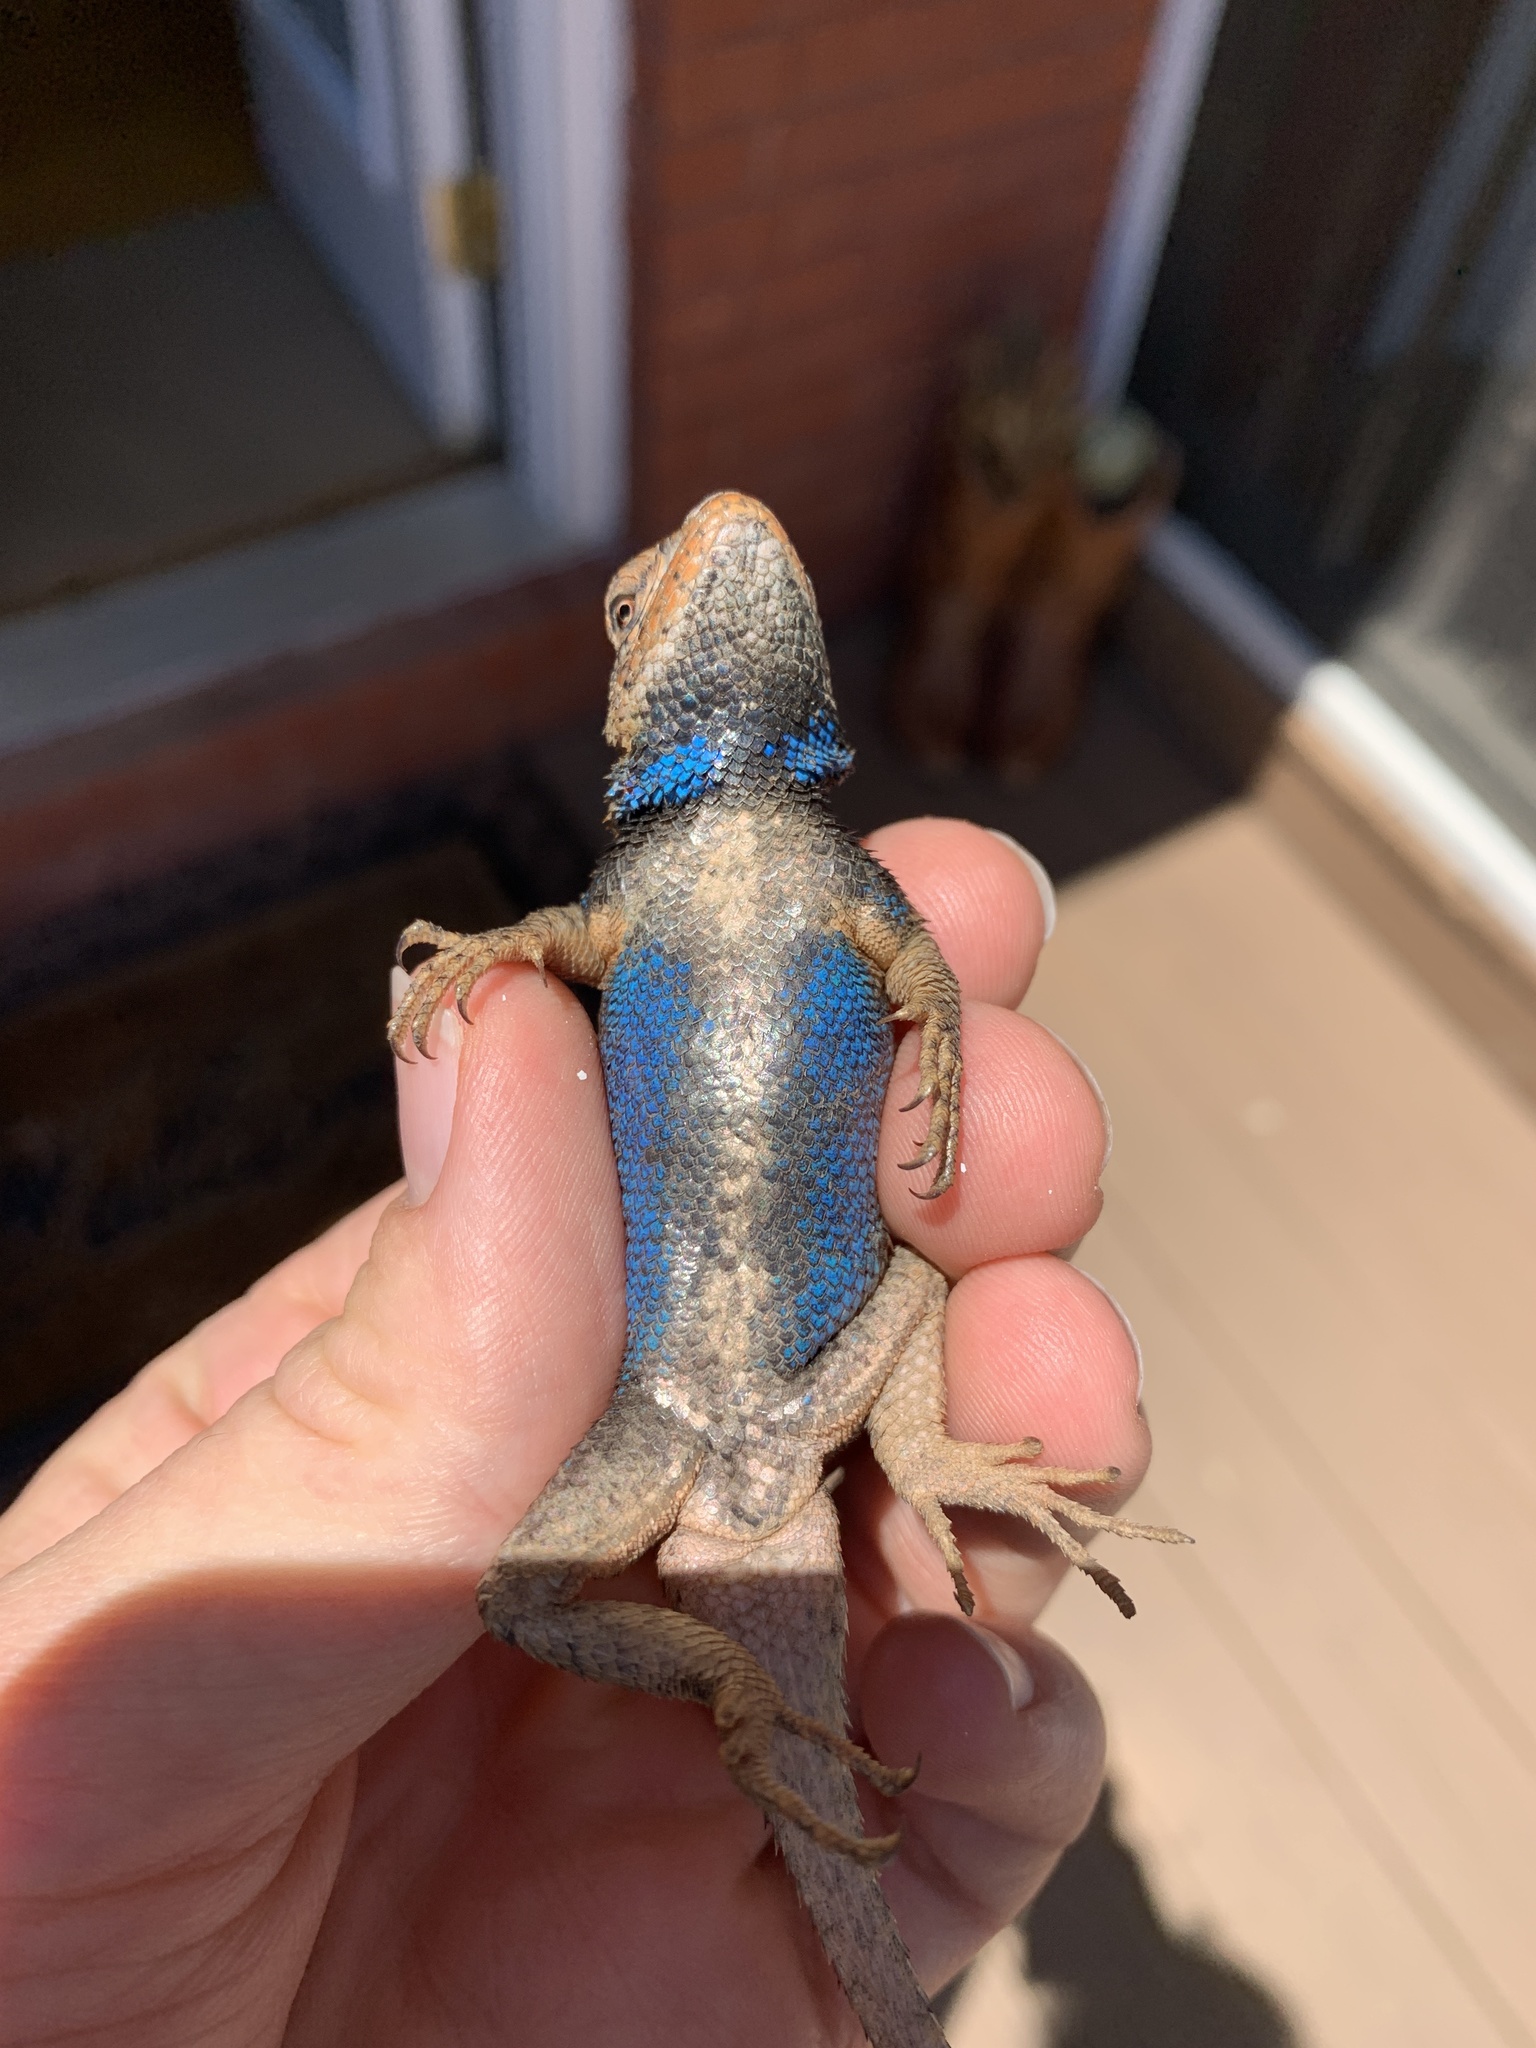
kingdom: Animalia
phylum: Chordata
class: Squamata
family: Phrynosomatidae
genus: Sceloporus
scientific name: Sceloporus undulatus
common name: Eastern fence lizard
